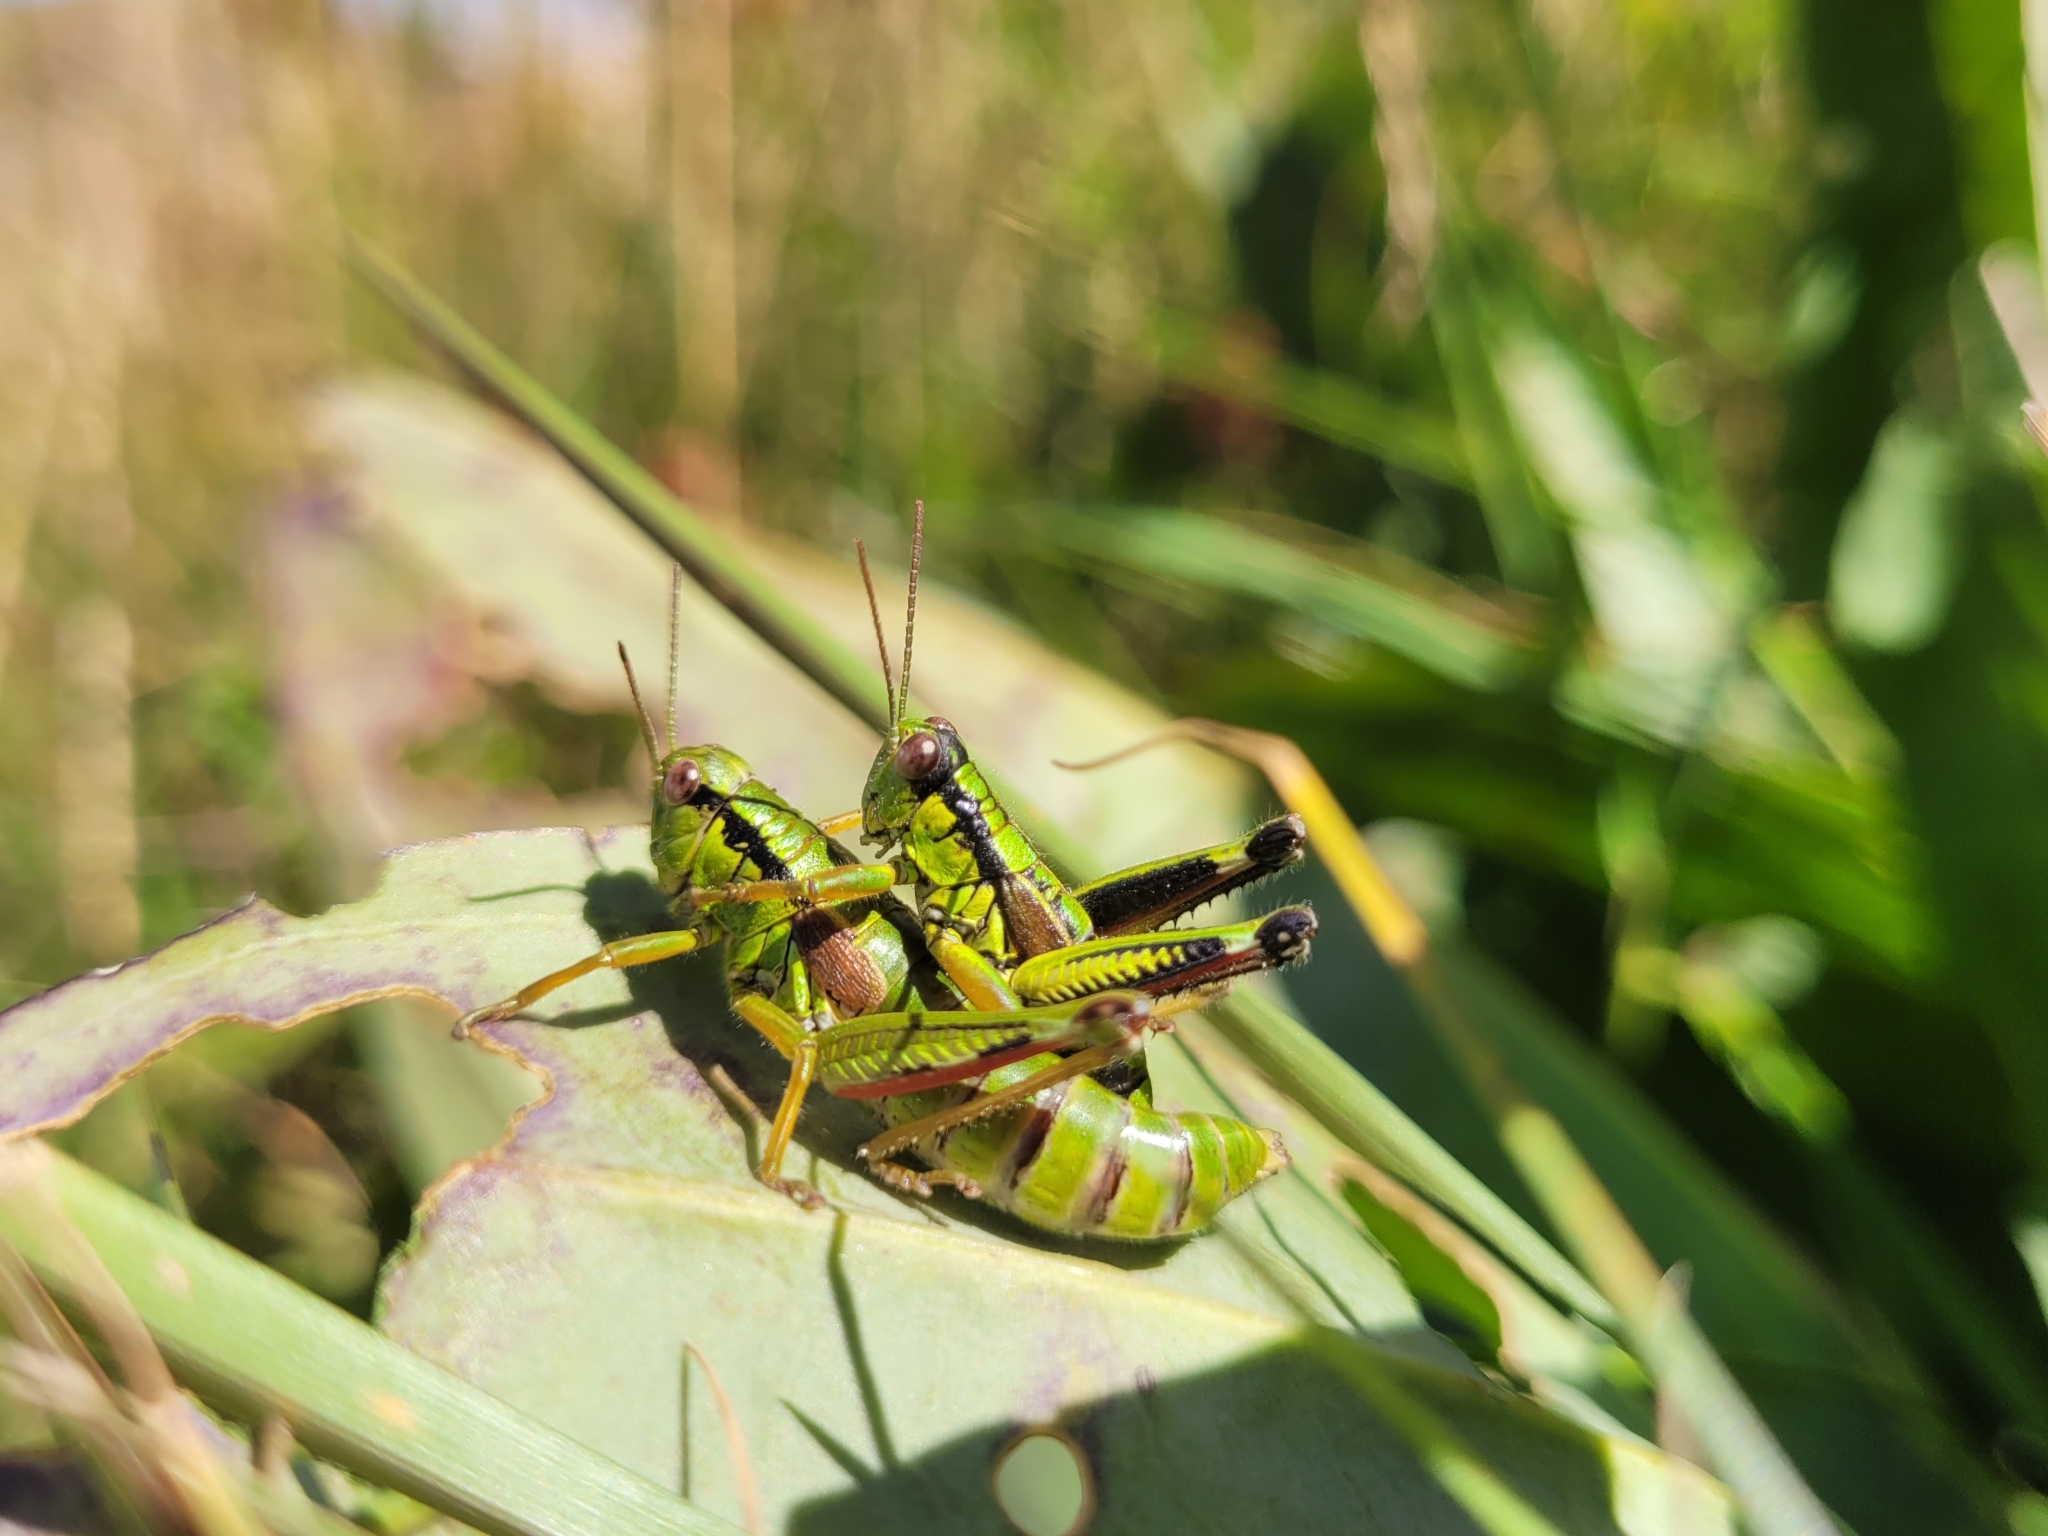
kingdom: Animalia
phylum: Arthropoda
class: Insecta
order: Orthoptera
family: Acrididae
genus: Miramella
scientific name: Miramella alpina
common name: Green mountain grasshopper
